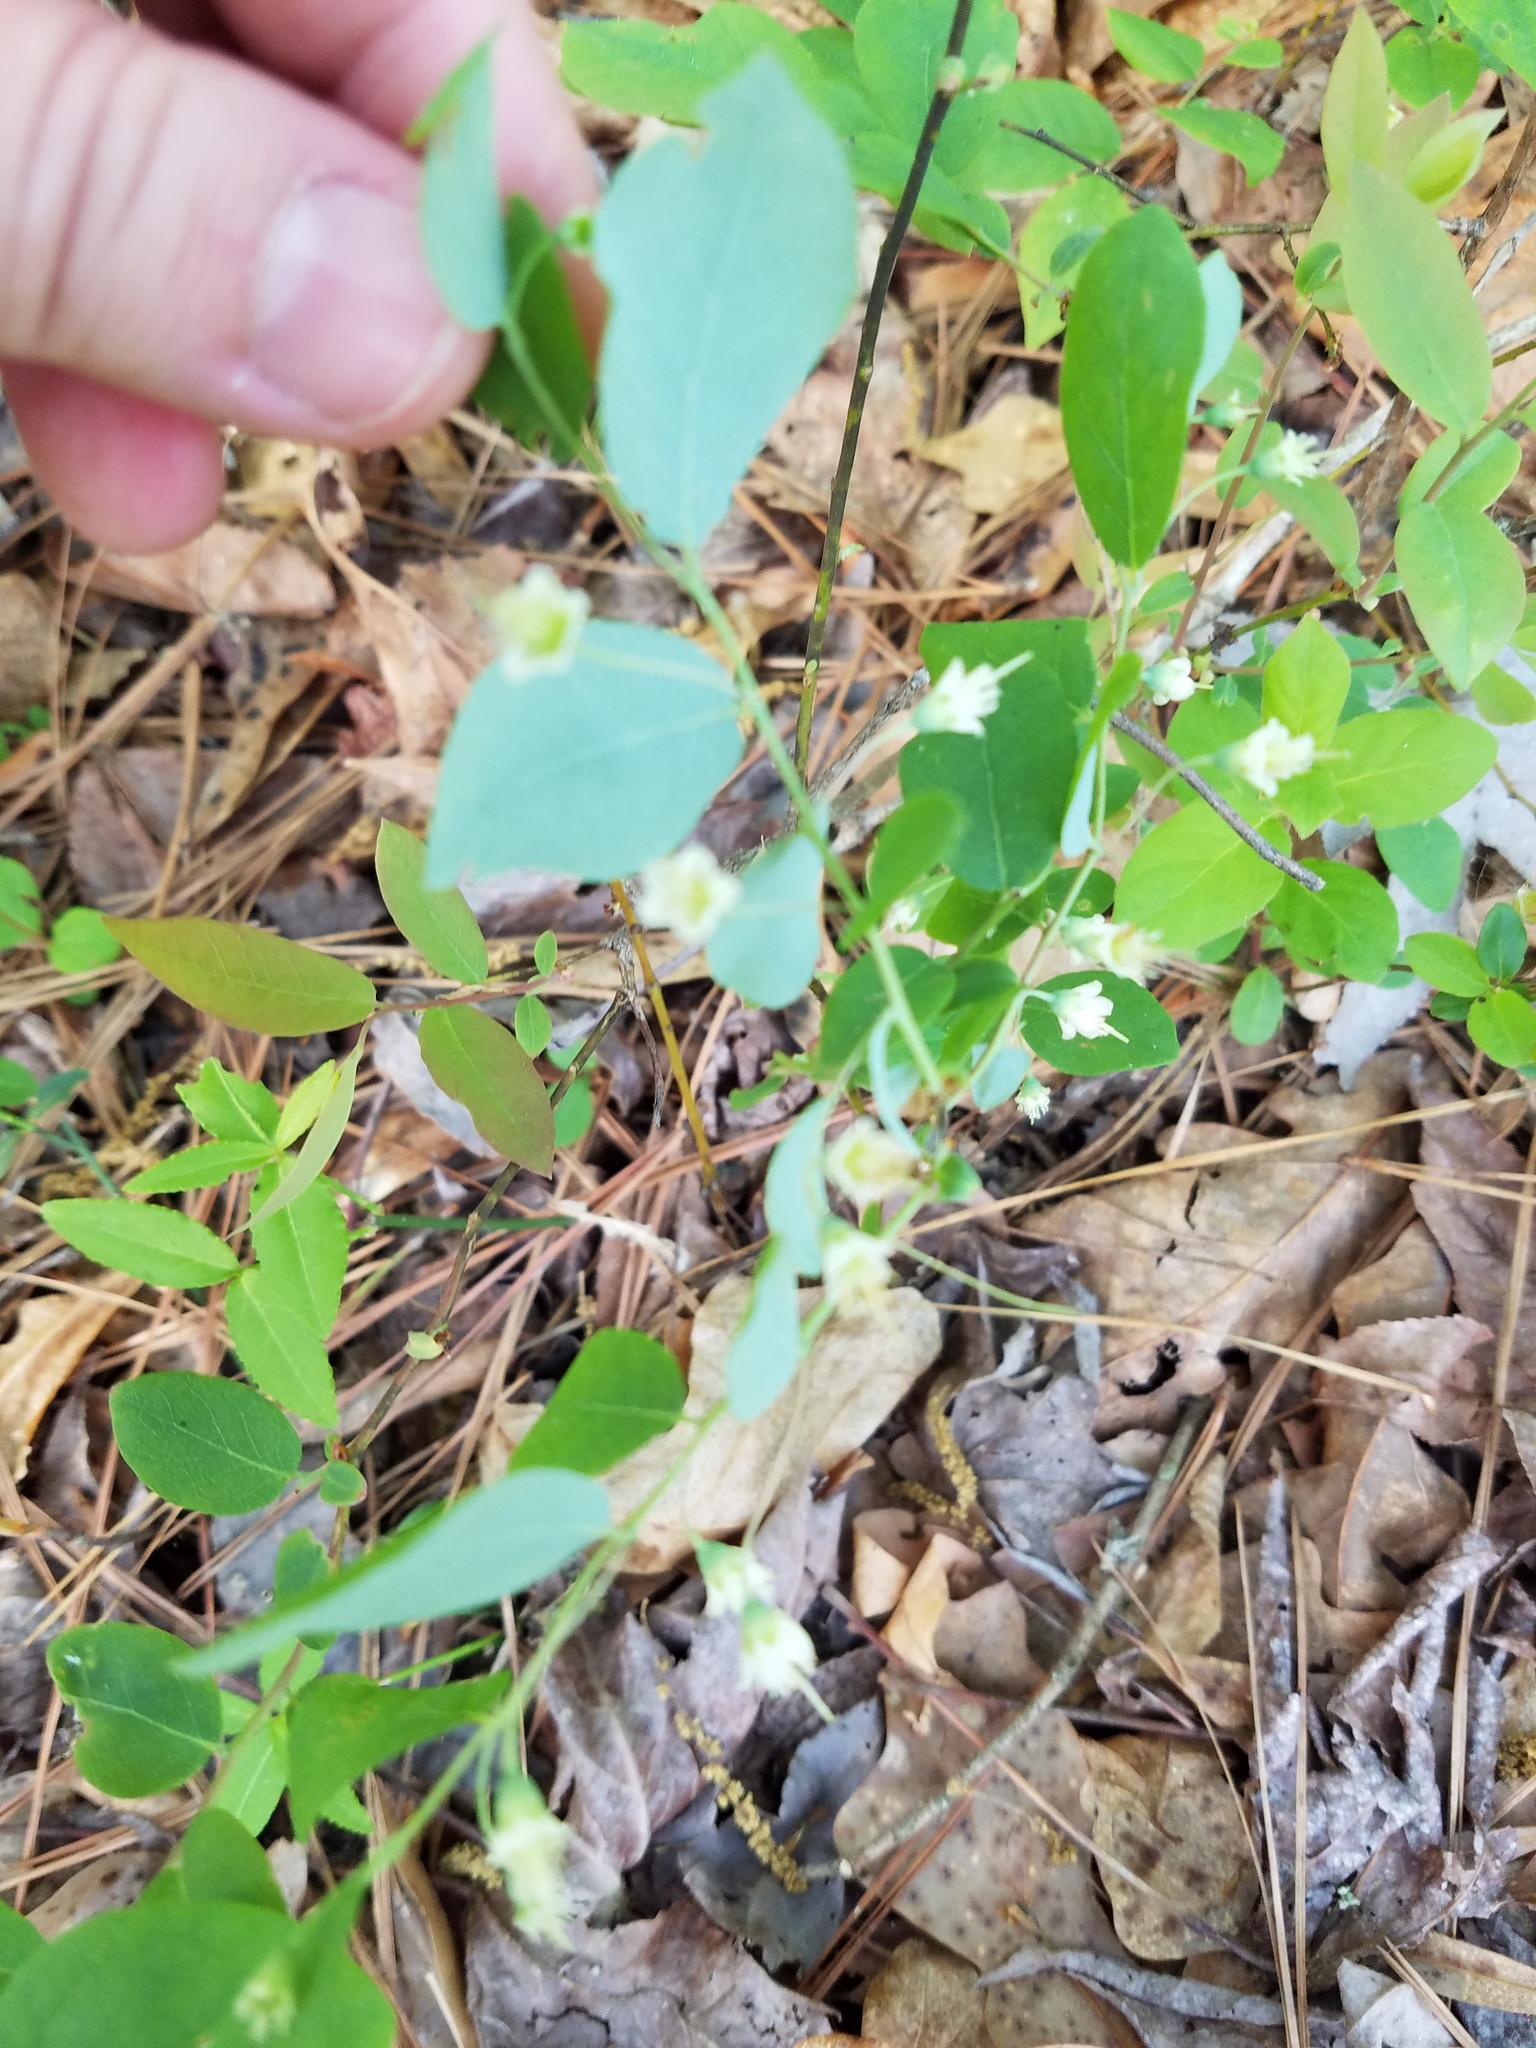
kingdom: Plantae
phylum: Tracheophyta
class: Magnoliopsida
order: Ericales
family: Ericaceae
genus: Vaccinium
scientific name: Vaccinium stamineum
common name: Deerberry
